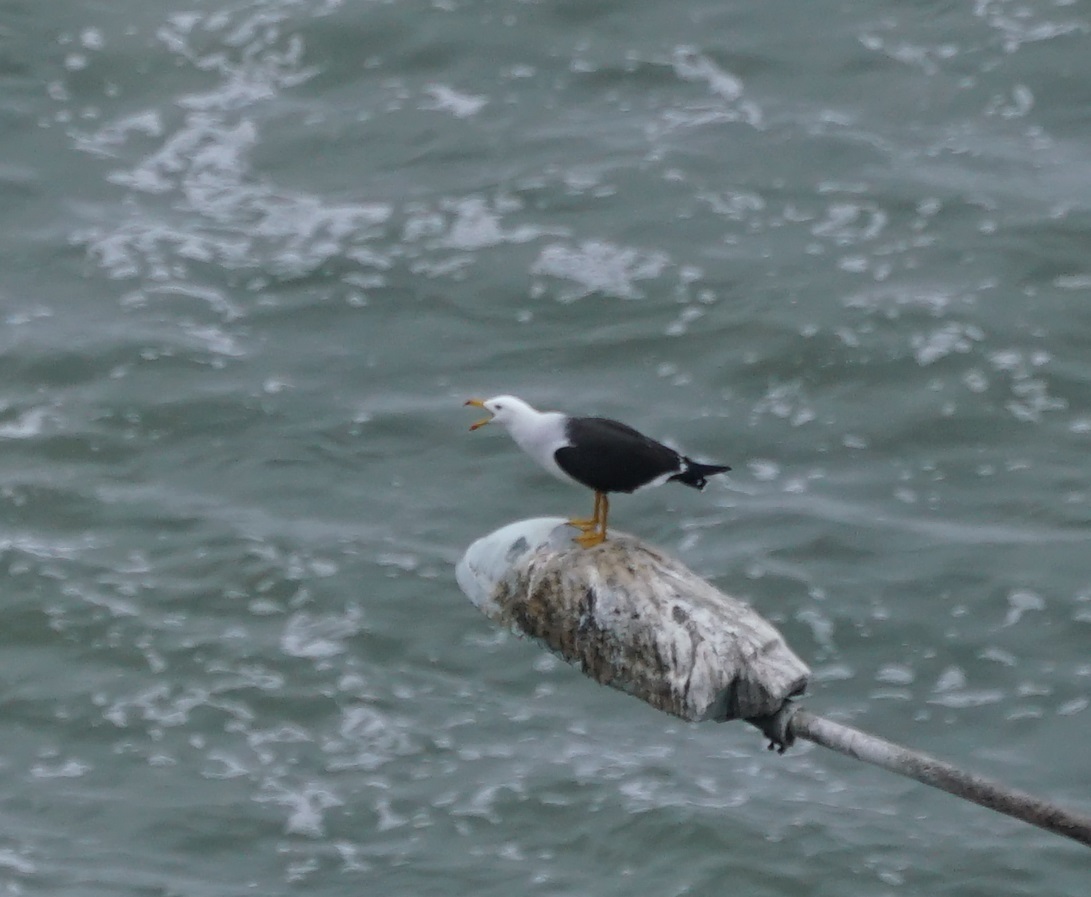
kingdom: Animalia
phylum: Chordata
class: Aves
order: Charadriiformes
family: Laridae
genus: Larus
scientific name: Larus belcheri
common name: Belcher's gull
